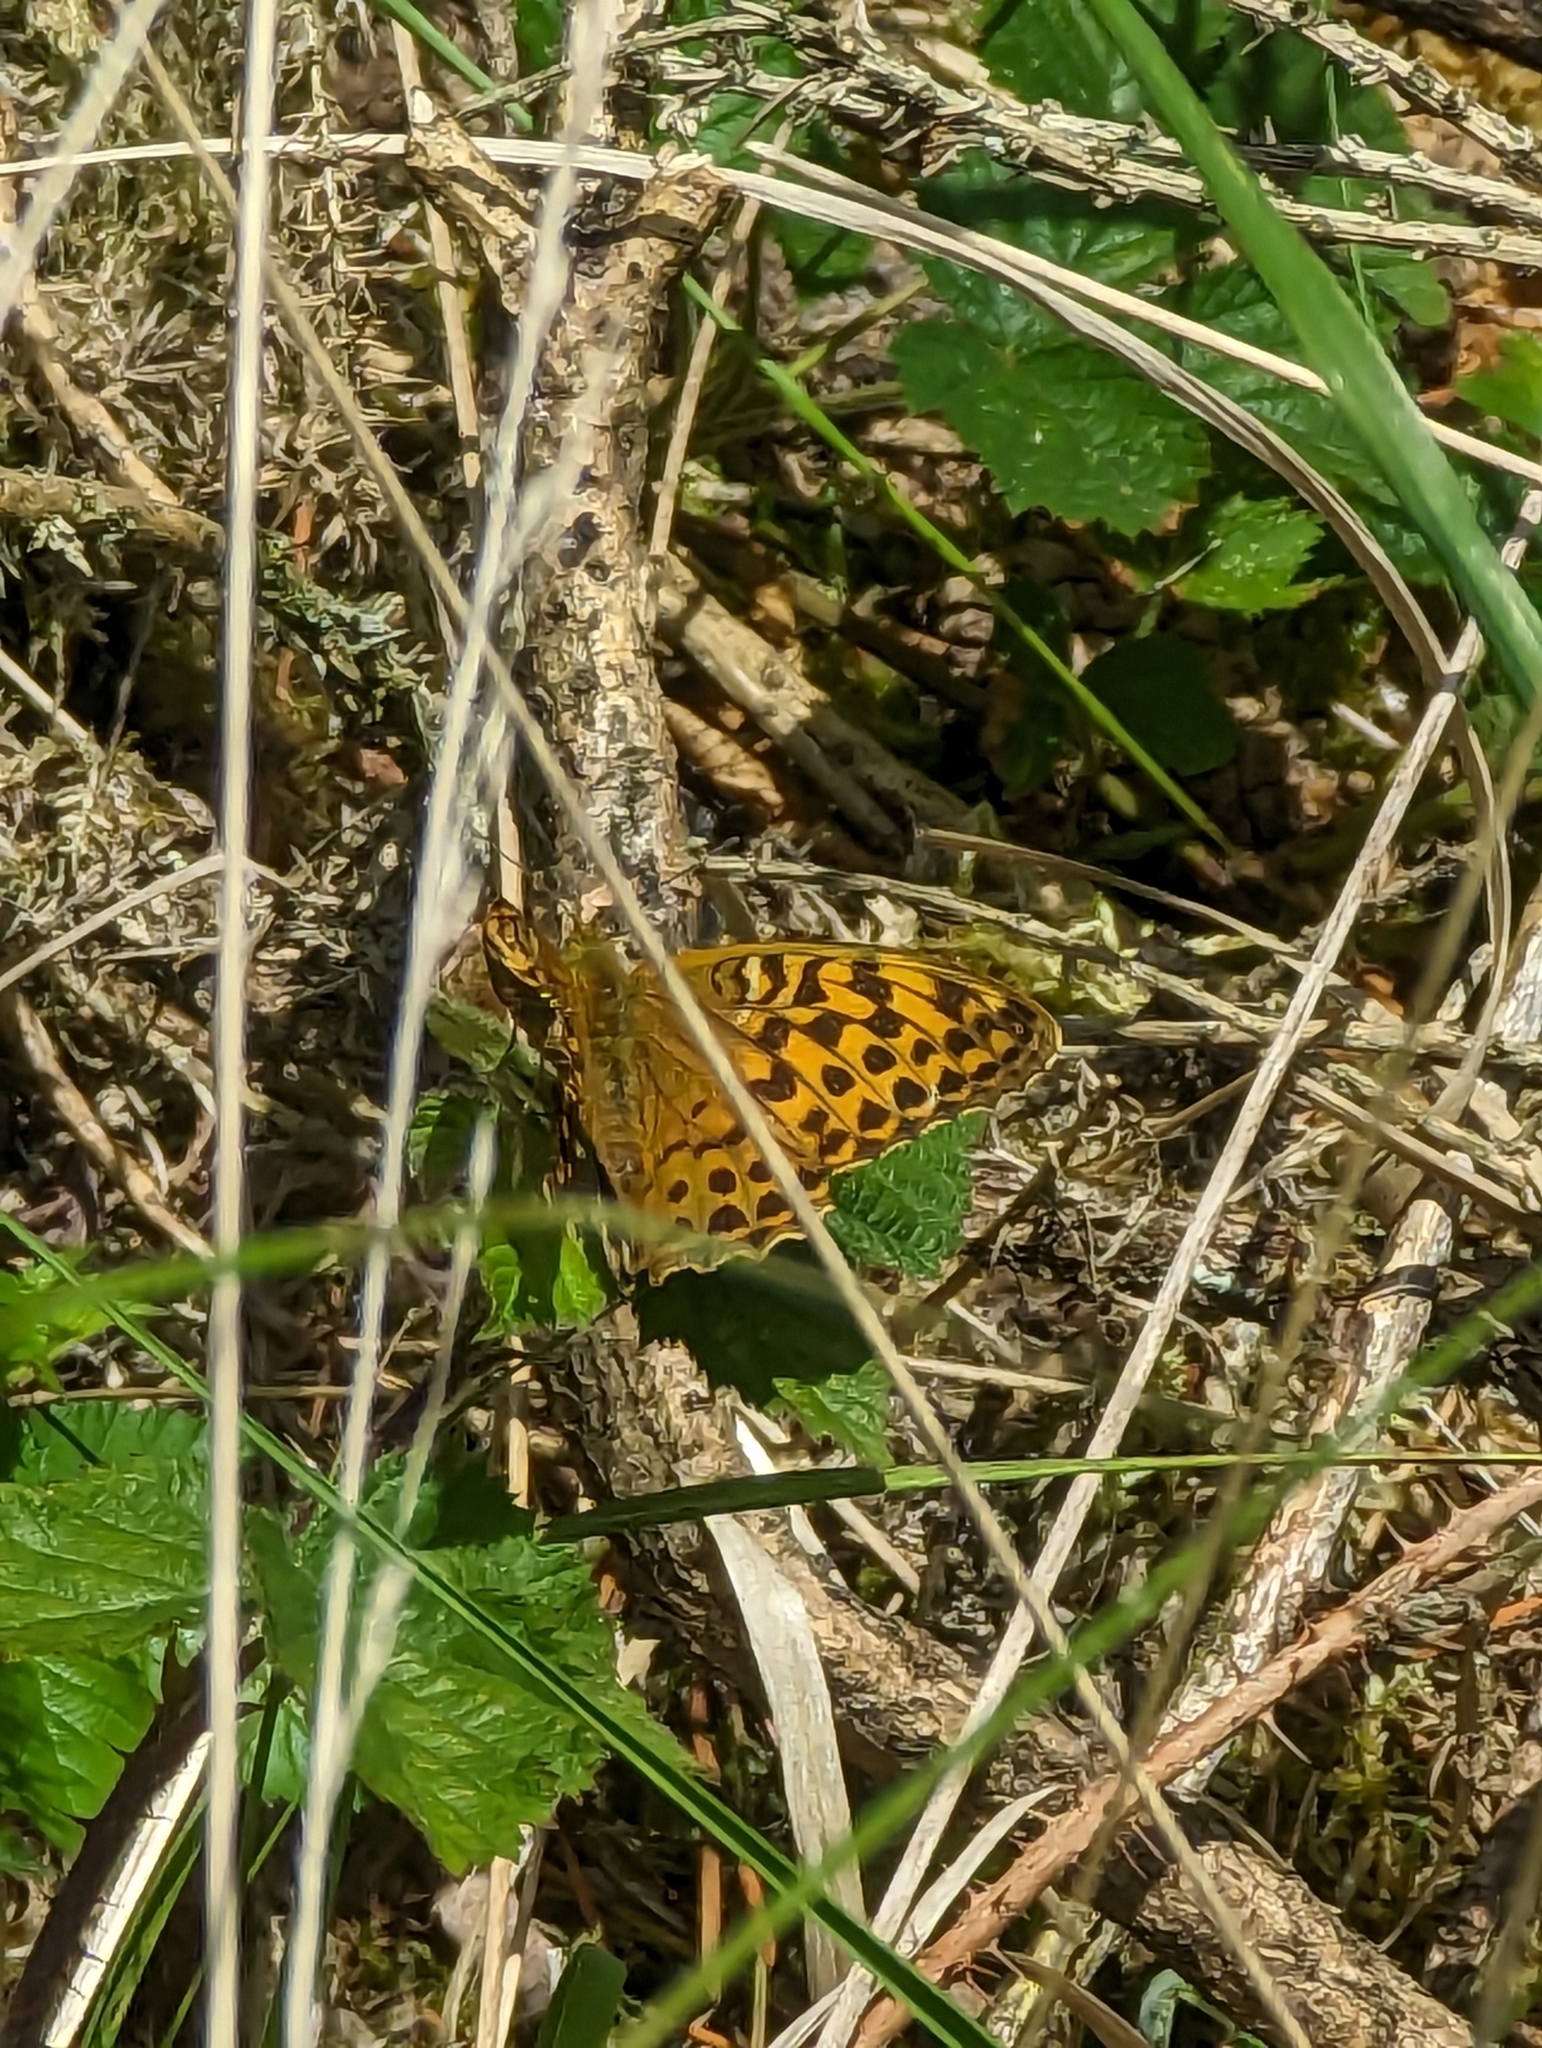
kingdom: Animalia
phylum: Arthropoda
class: Insecta
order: Lepidoptera
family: Nymphalidae
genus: Argynnis
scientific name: Argynnis paphia
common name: Silver-washed fritillary
